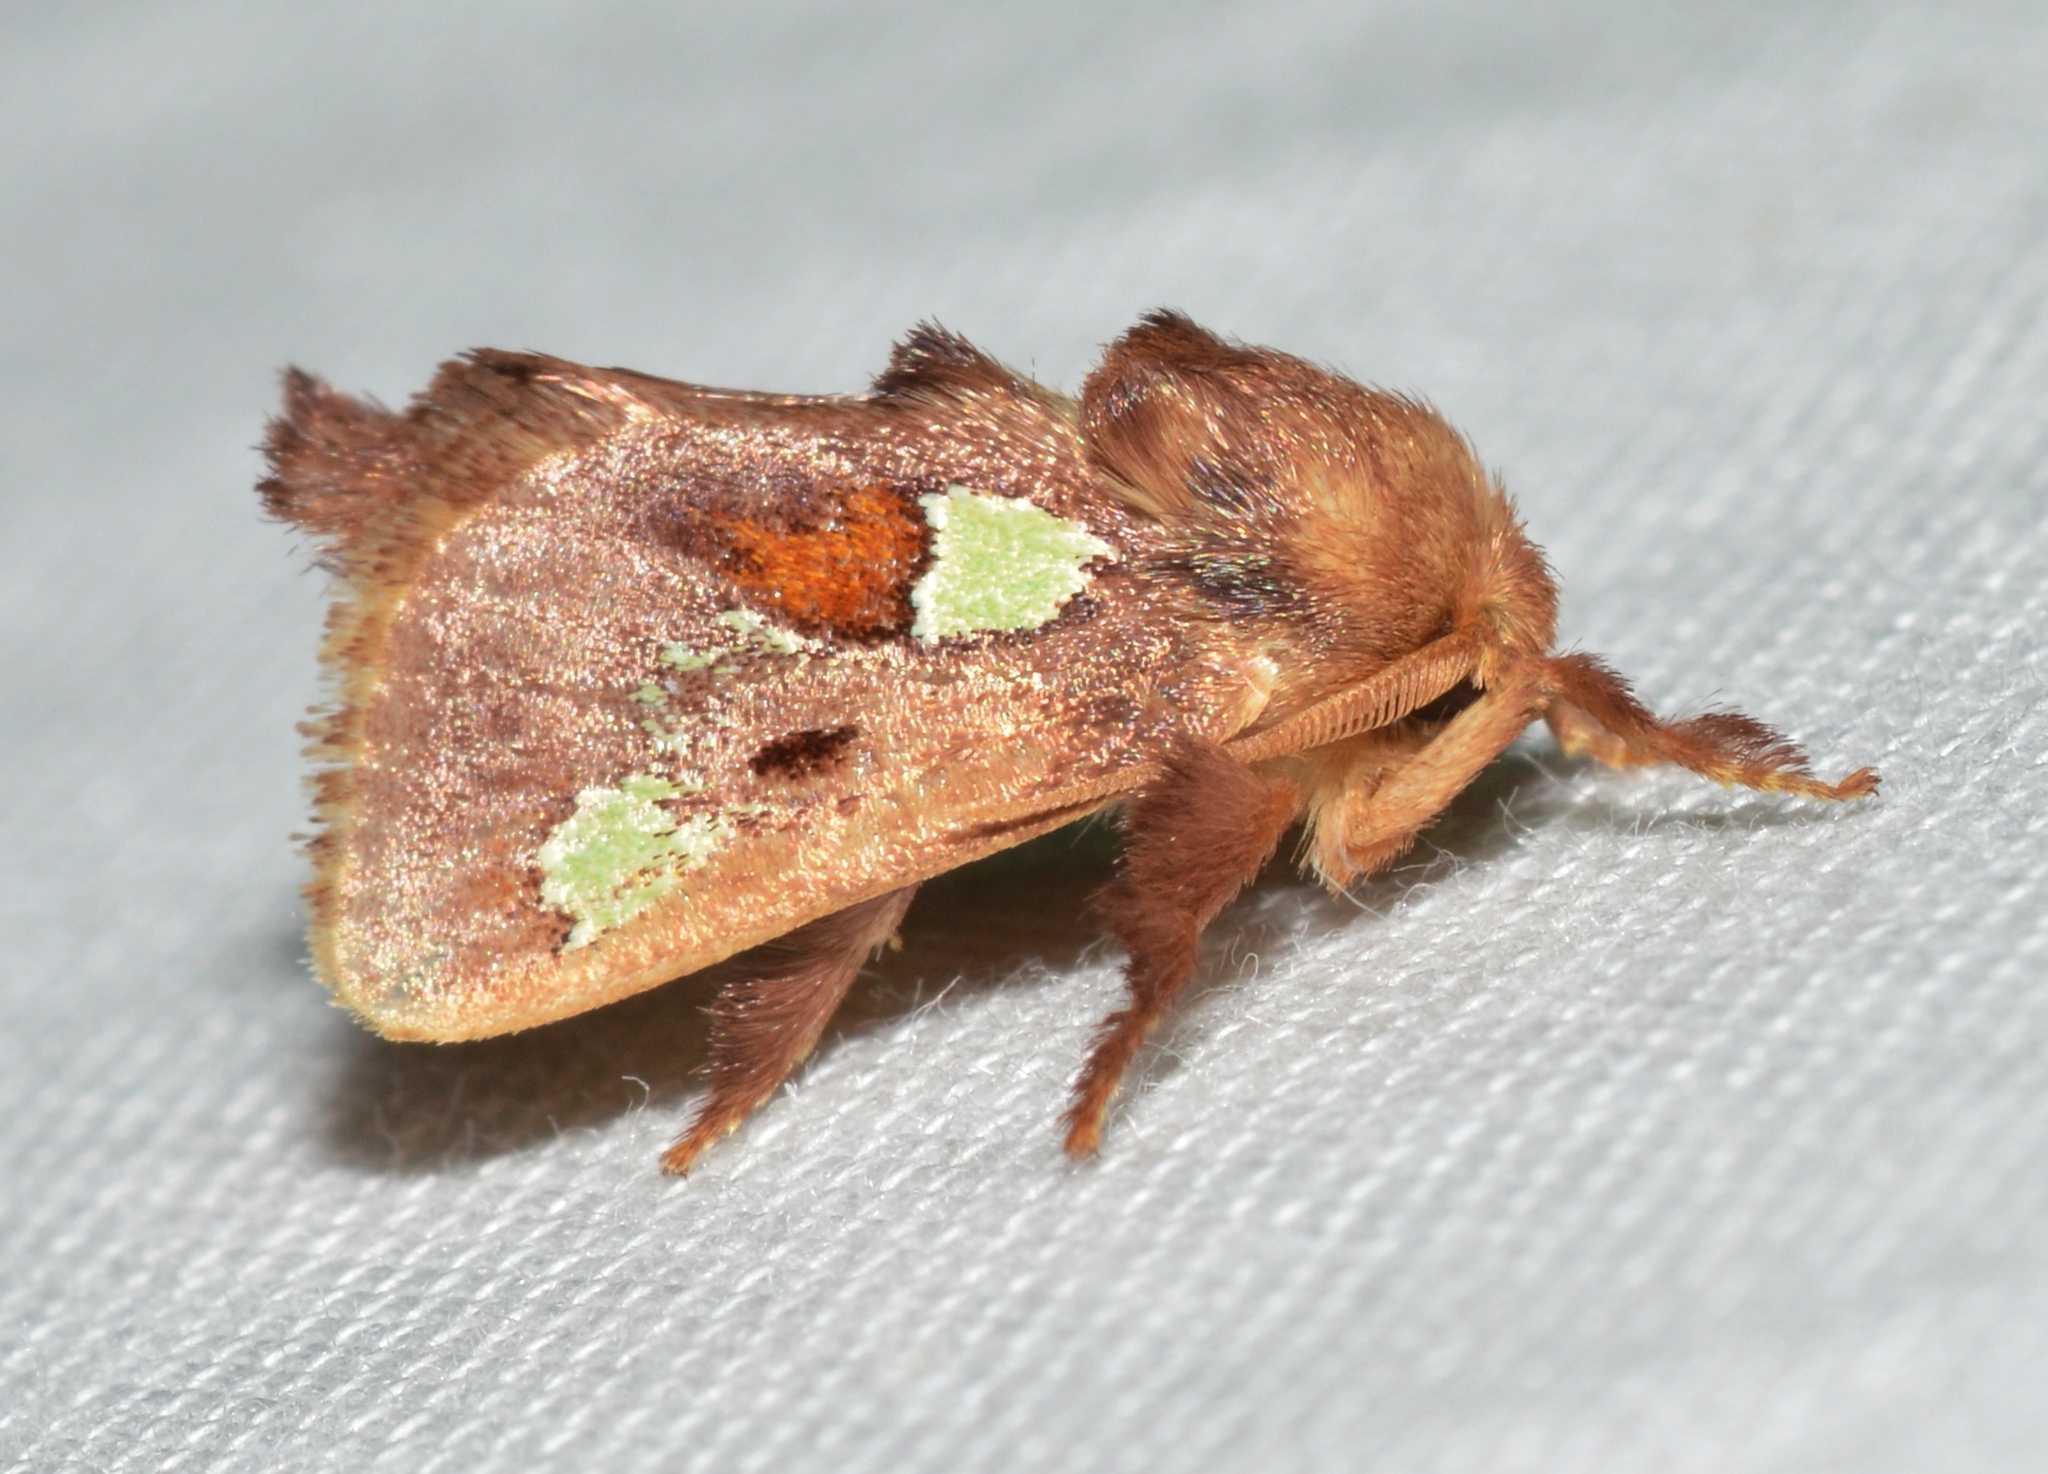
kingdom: Animalia
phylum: Arthropoda
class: Insecta
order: Lepidoptera
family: Limacodidae
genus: Euclea
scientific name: Euclea delphinii
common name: Spiny oak-slug moth
